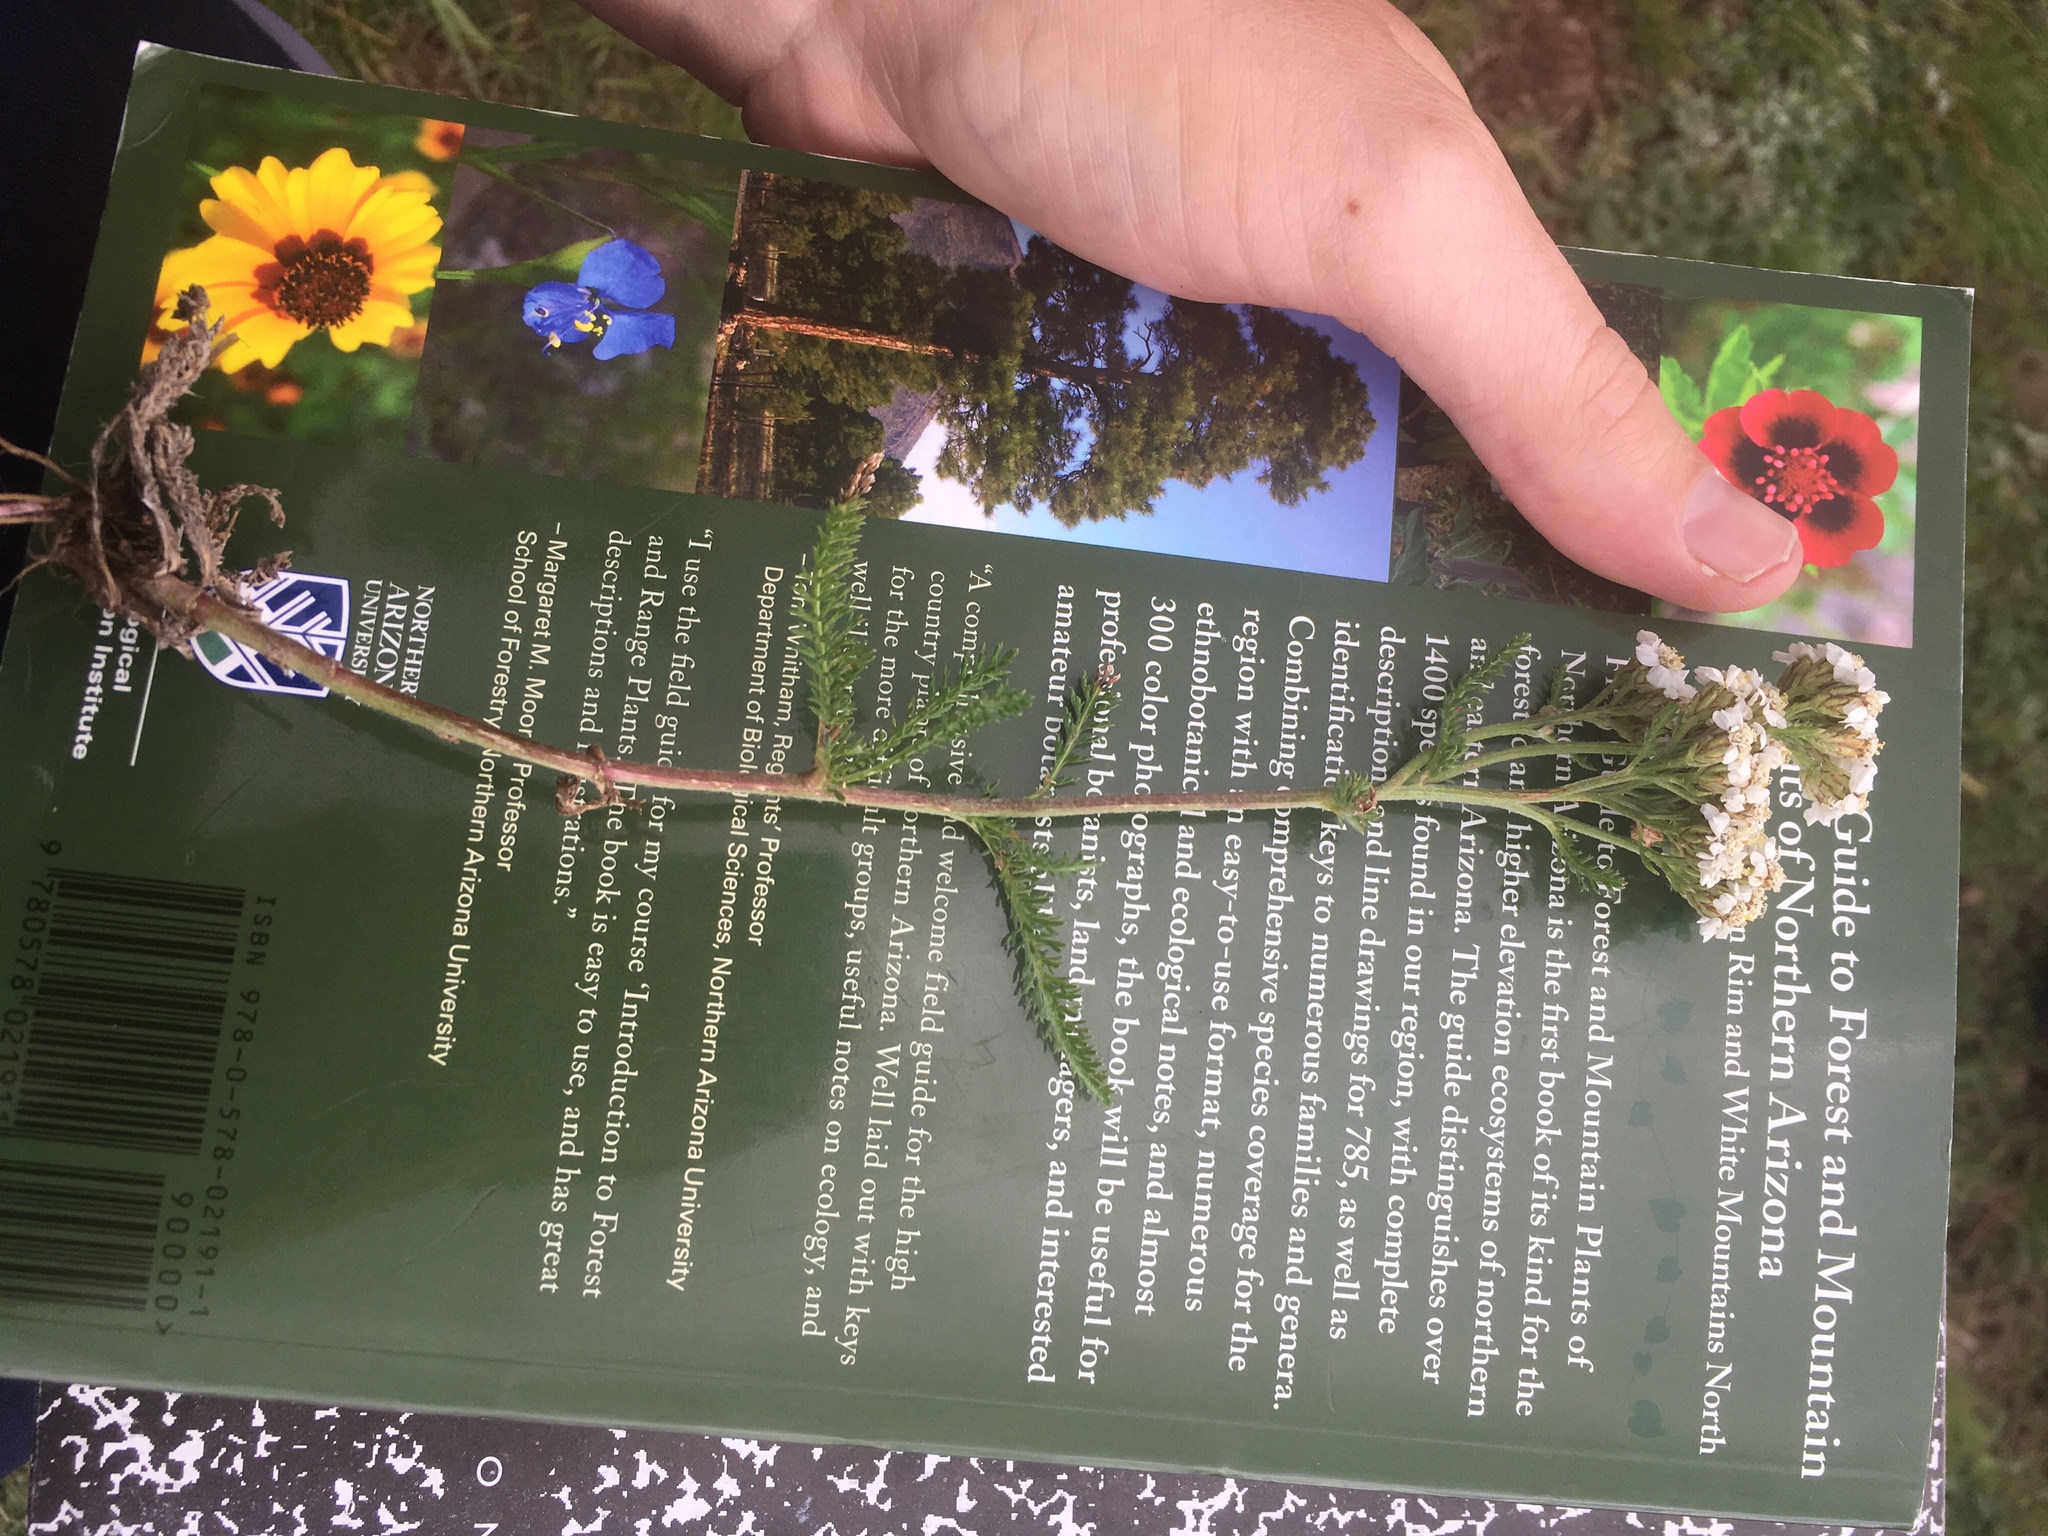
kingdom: Plantae
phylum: Tracheophyta
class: Magnoliopsida
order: Asterales
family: Asteraceae
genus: Achillea
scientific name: Achillea millefolium
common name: Yarrow
